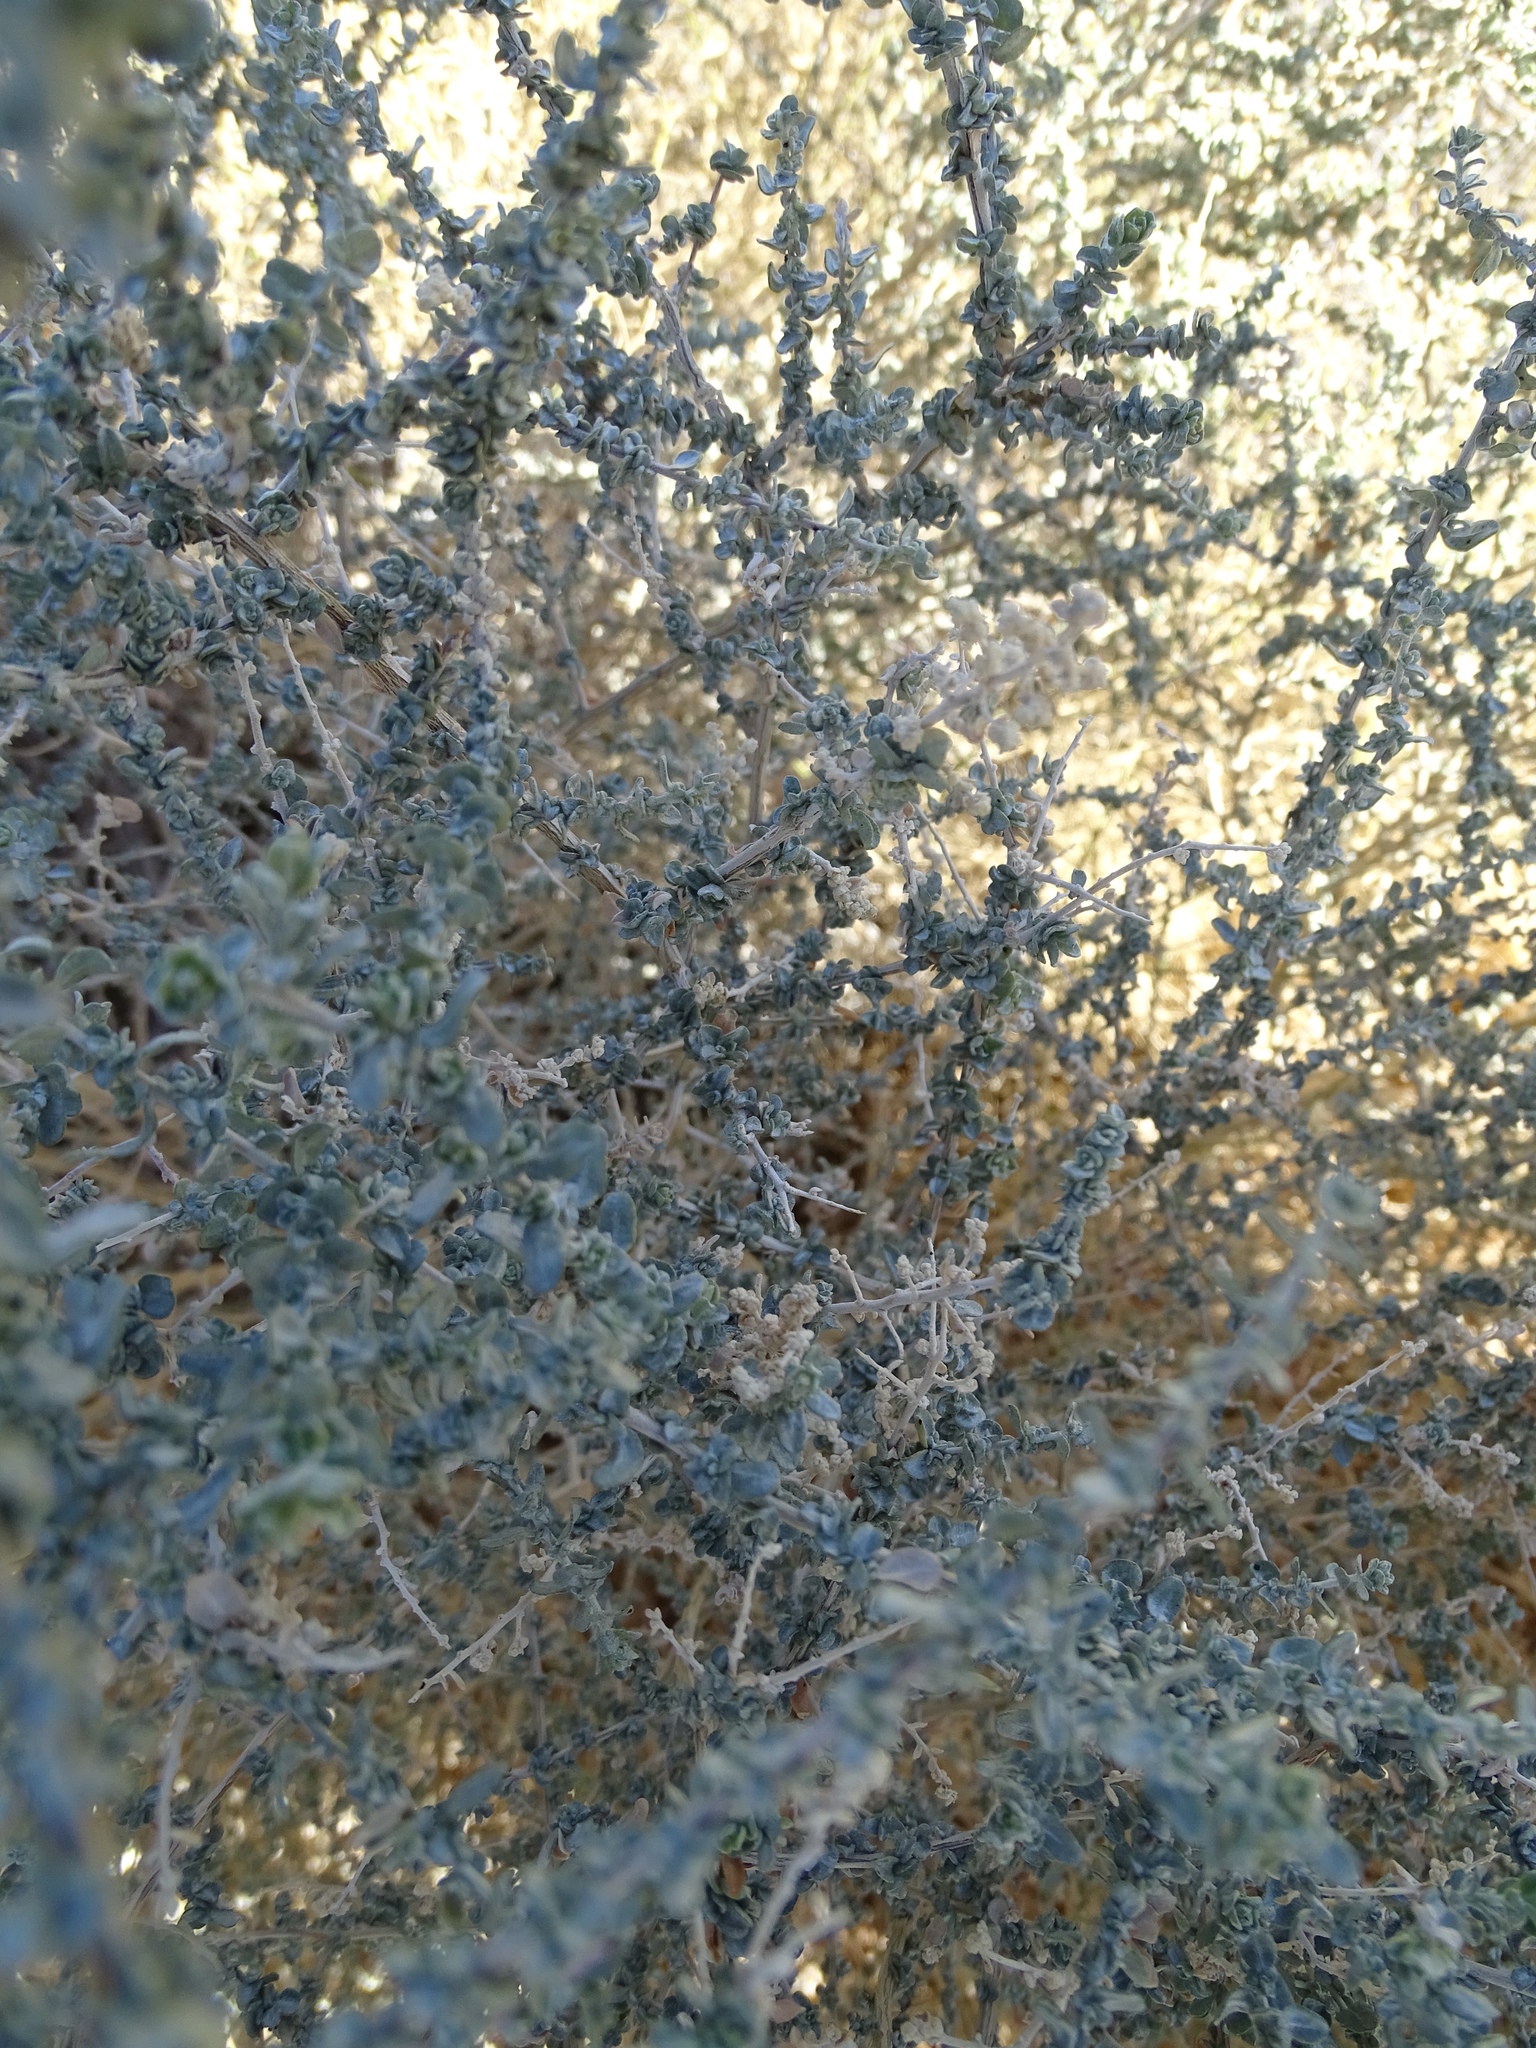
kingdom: Plantae
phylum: Tracheophyta
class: Magnoliopsida
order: Caryophyllales
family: Amaranthaceae
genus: Atriplex
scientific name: Atriplex polycarpa
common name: Desert saltbush
